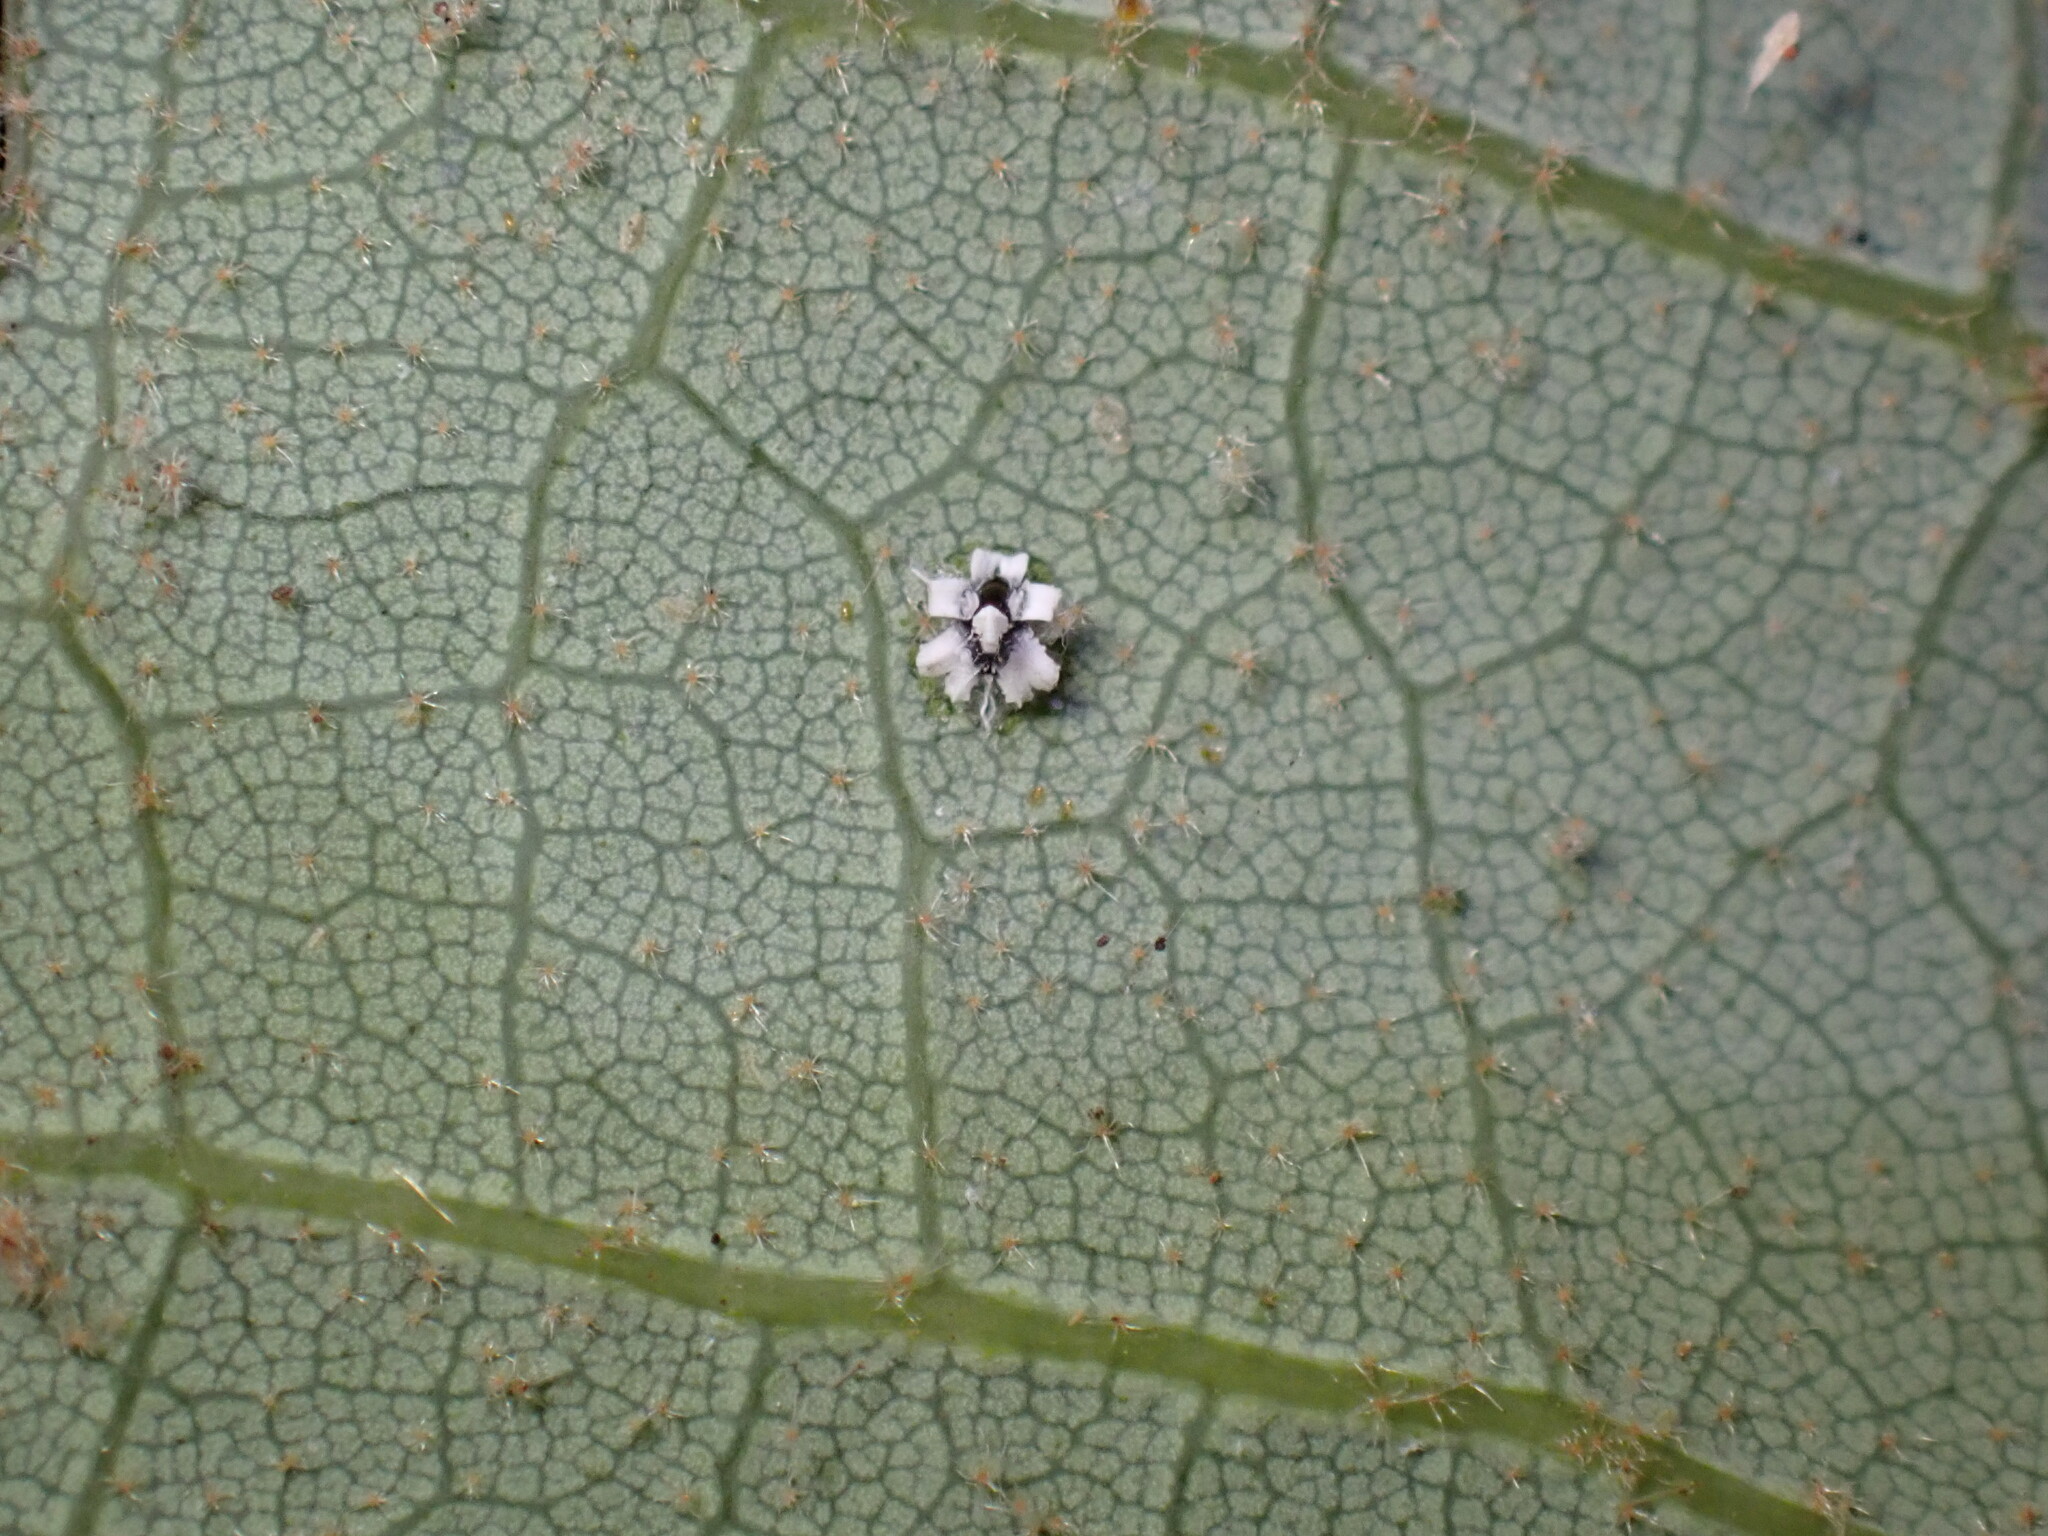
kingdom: Animalia
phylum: Arthropoda
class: Insecta
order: Hemiptera
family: Aleyrodidae
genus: Aleuroplatus
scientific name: Aleuroplatus coronata
